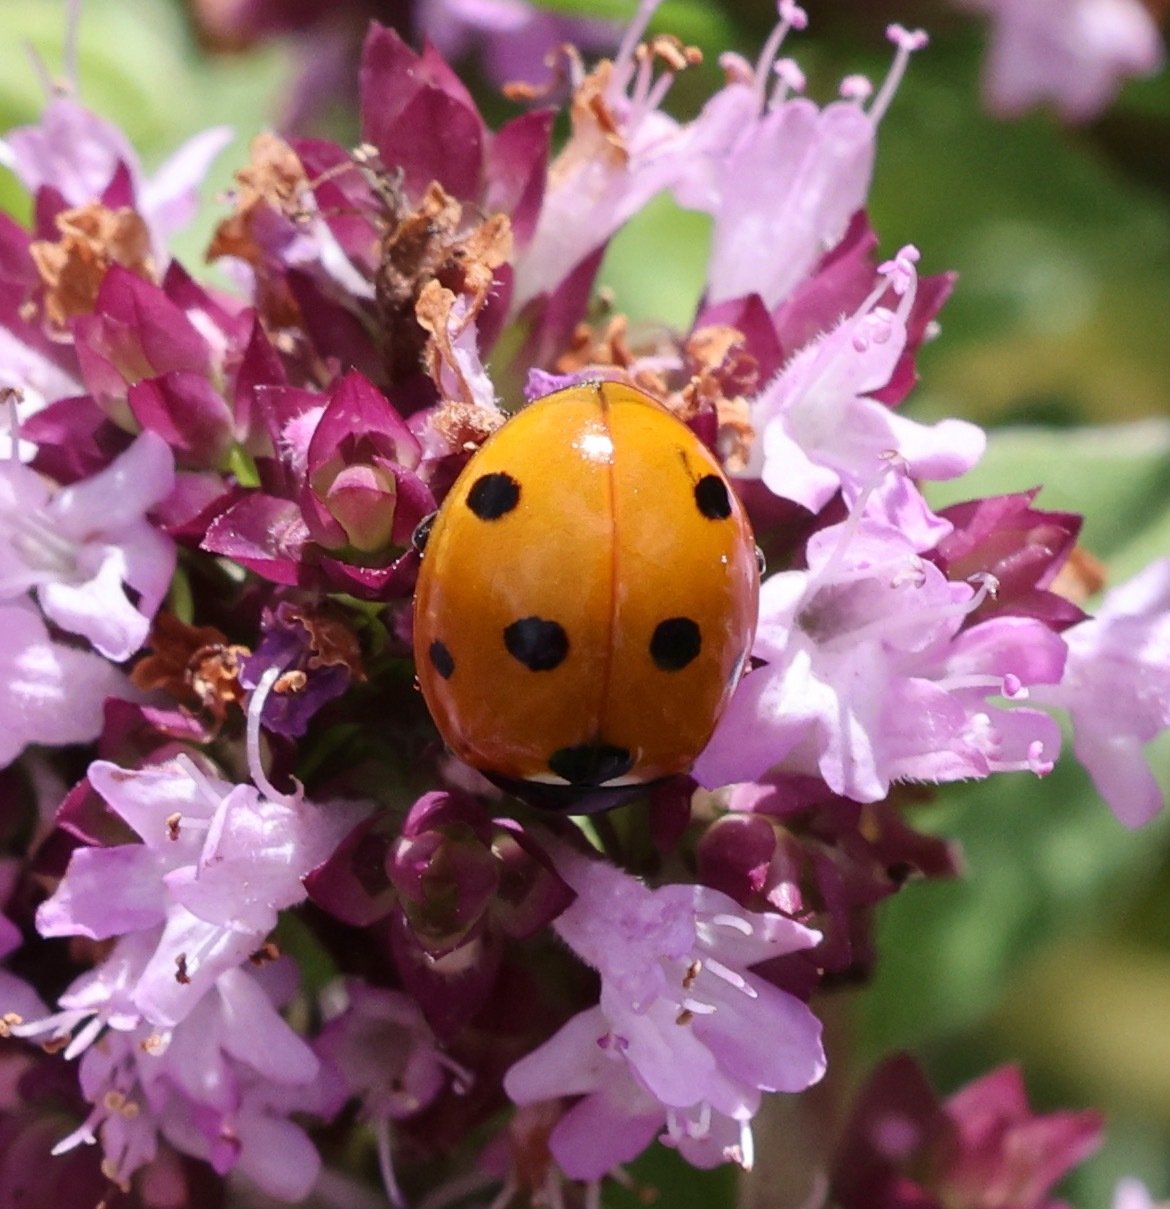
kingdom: Animalia
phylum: Arthropoda
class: Insecta
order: Coleoptera
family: Coccinellidae
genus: Coccinella
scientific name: Coccinella septempunctata
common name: Sevenspotted lady beetle
